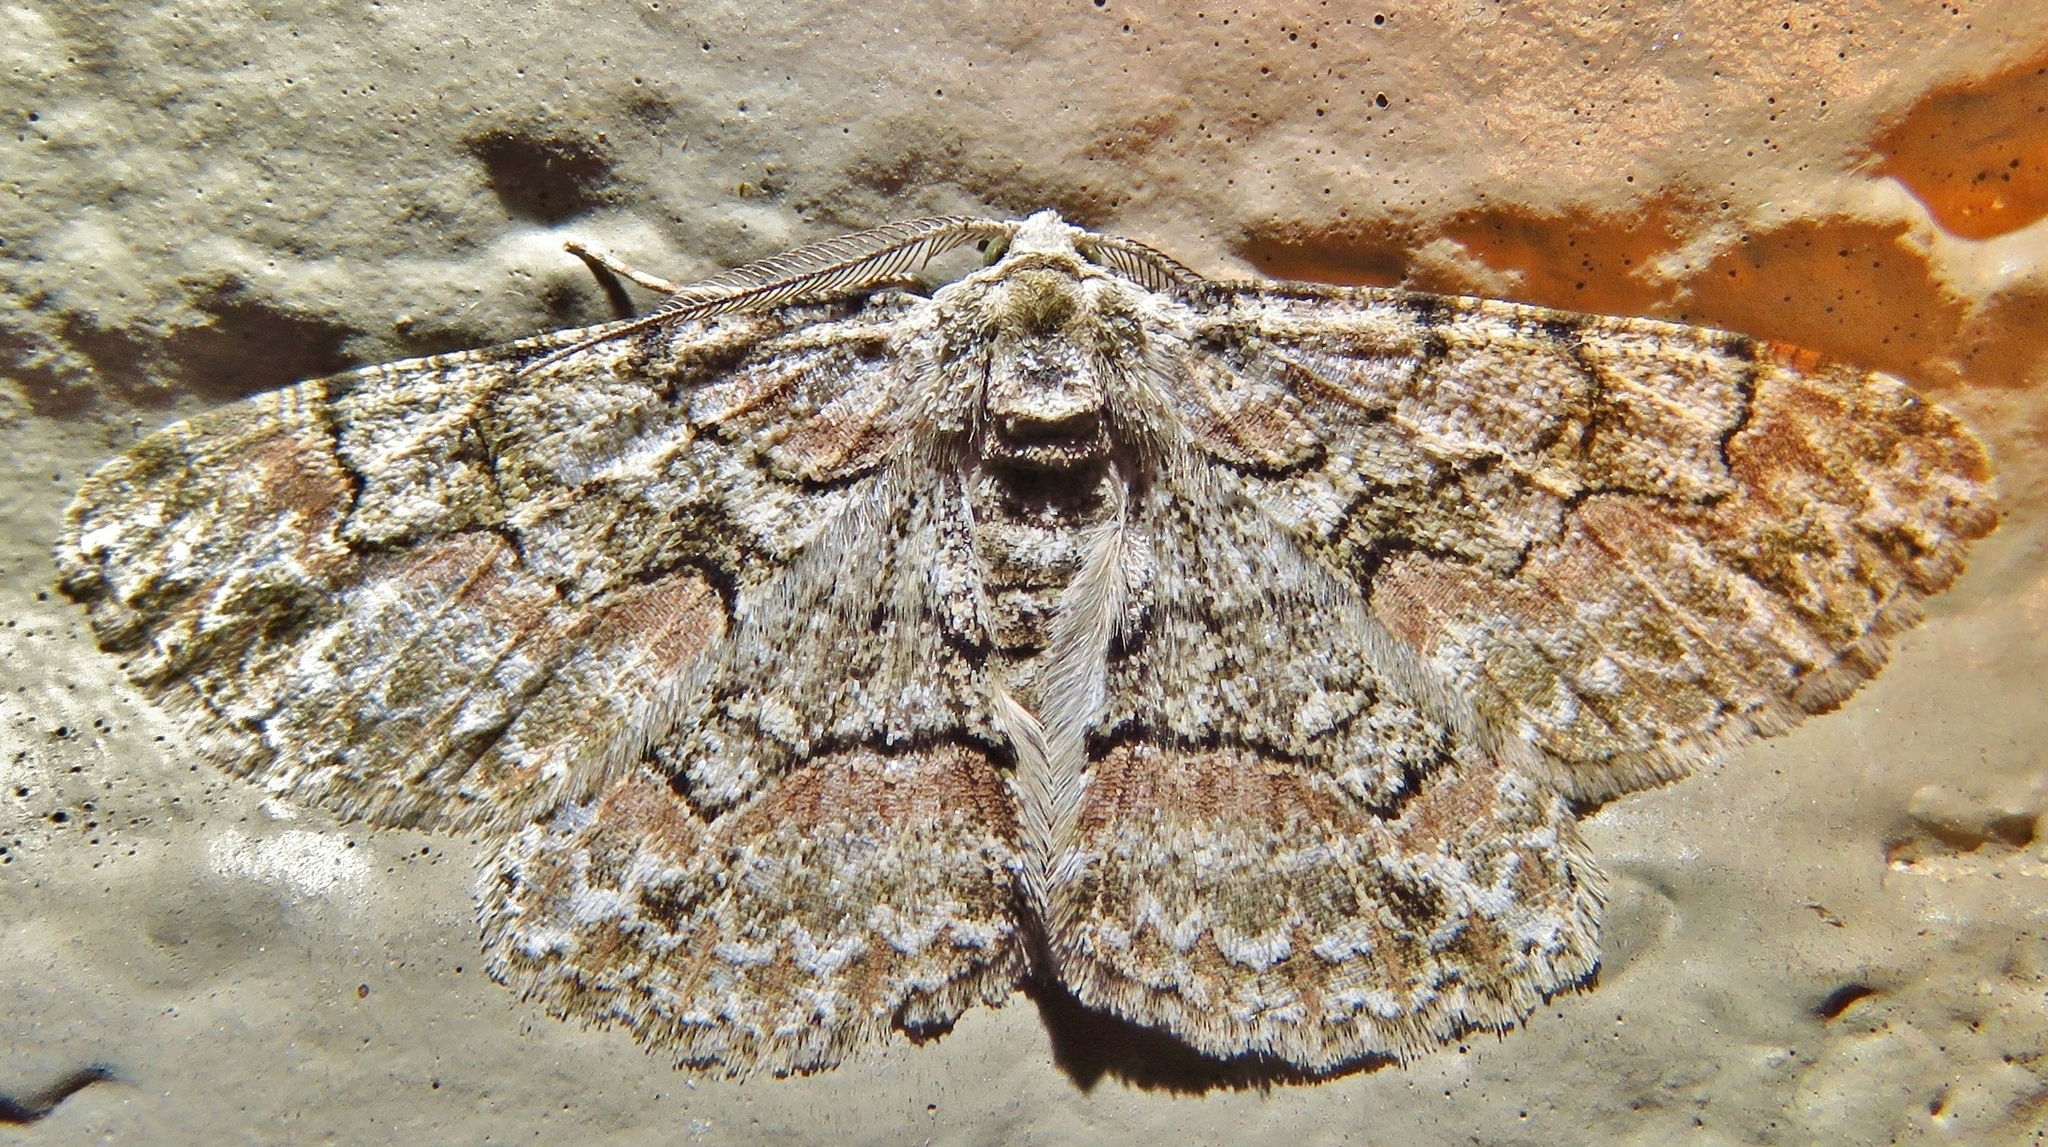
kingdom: Animalia
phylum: Arthropoda
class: Insecta
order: Lepidoptera
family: Geometridae
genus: Iridopsis
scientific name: Iridopsis defectaria
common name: Brown-shaded gray
